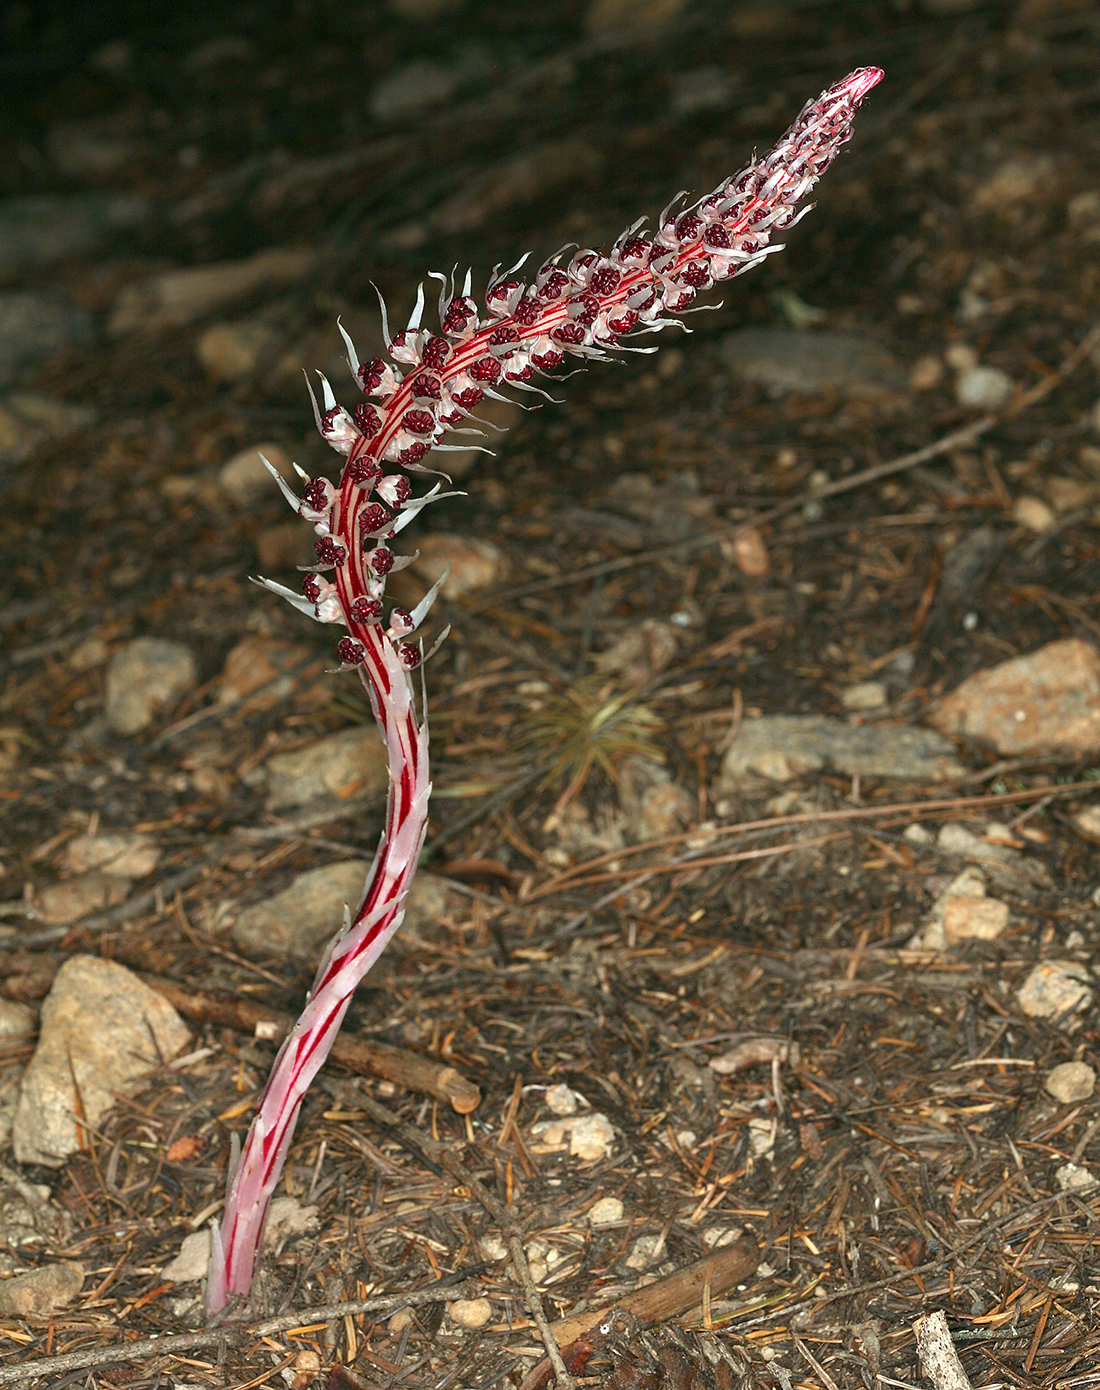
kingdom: Plantae
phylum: Tracheophyta
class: Magnoliopsida
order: Ericales
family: Ericaceae
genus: Allotropa
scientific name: Allotropa virgata
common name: Candy-striped allotropa
